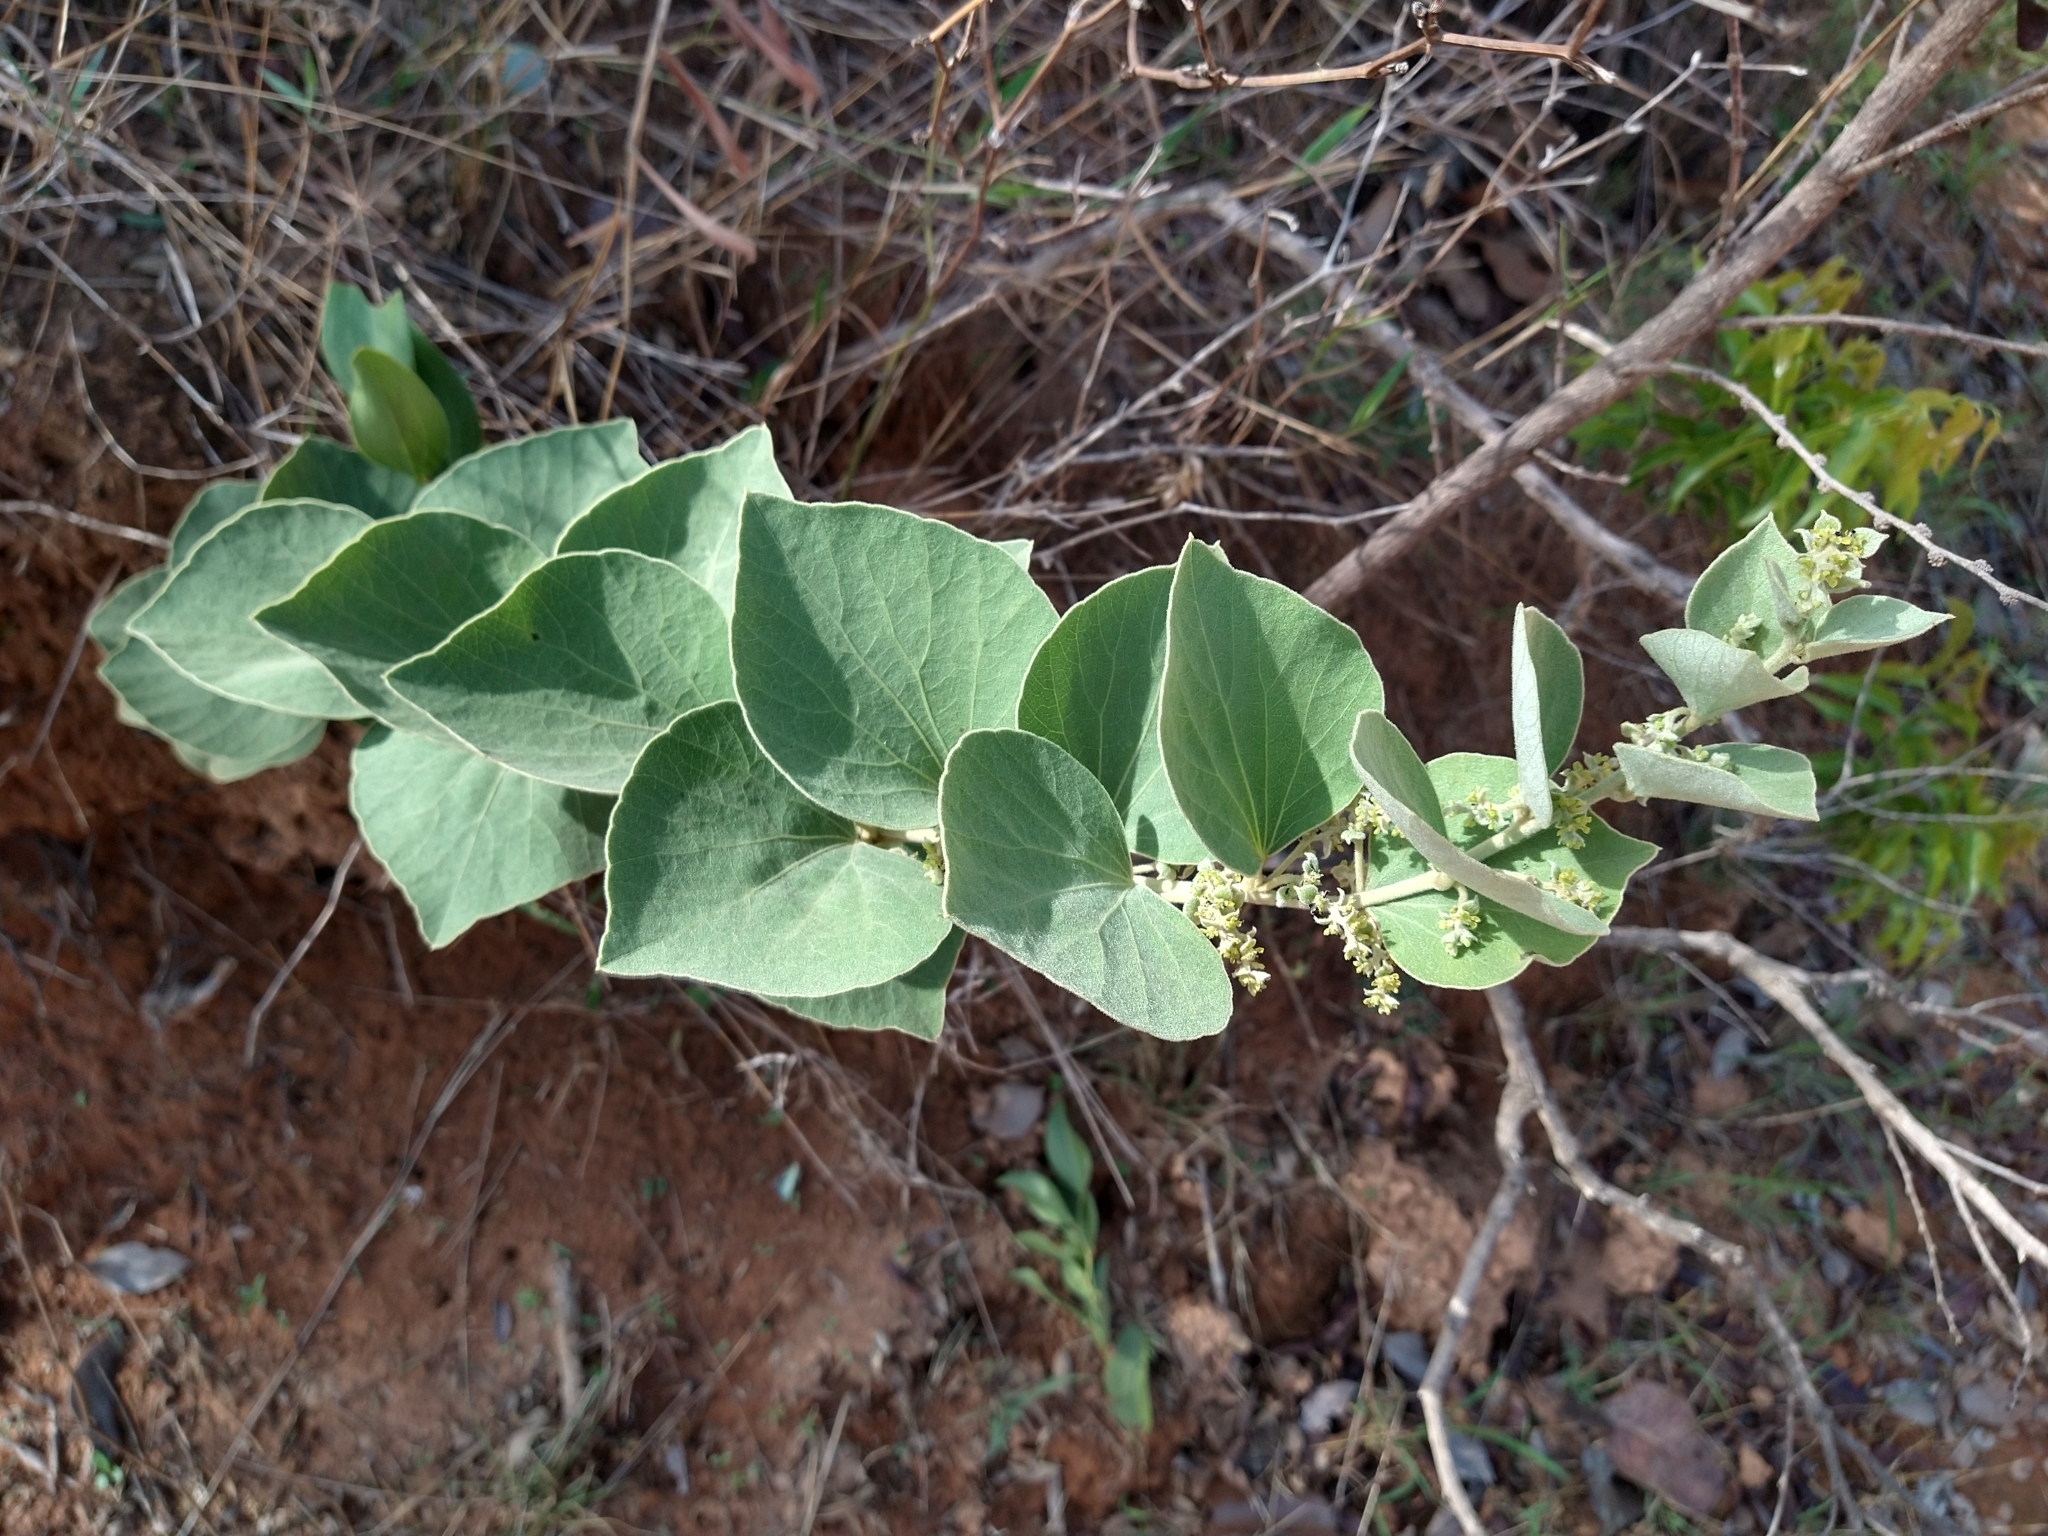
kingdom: Plantae
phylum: Tracheophyta
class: Magnoliopsida
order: Ranunculales
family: Menispermaceae
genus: Cissampelos
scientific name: Cissampelos ovalifolia
